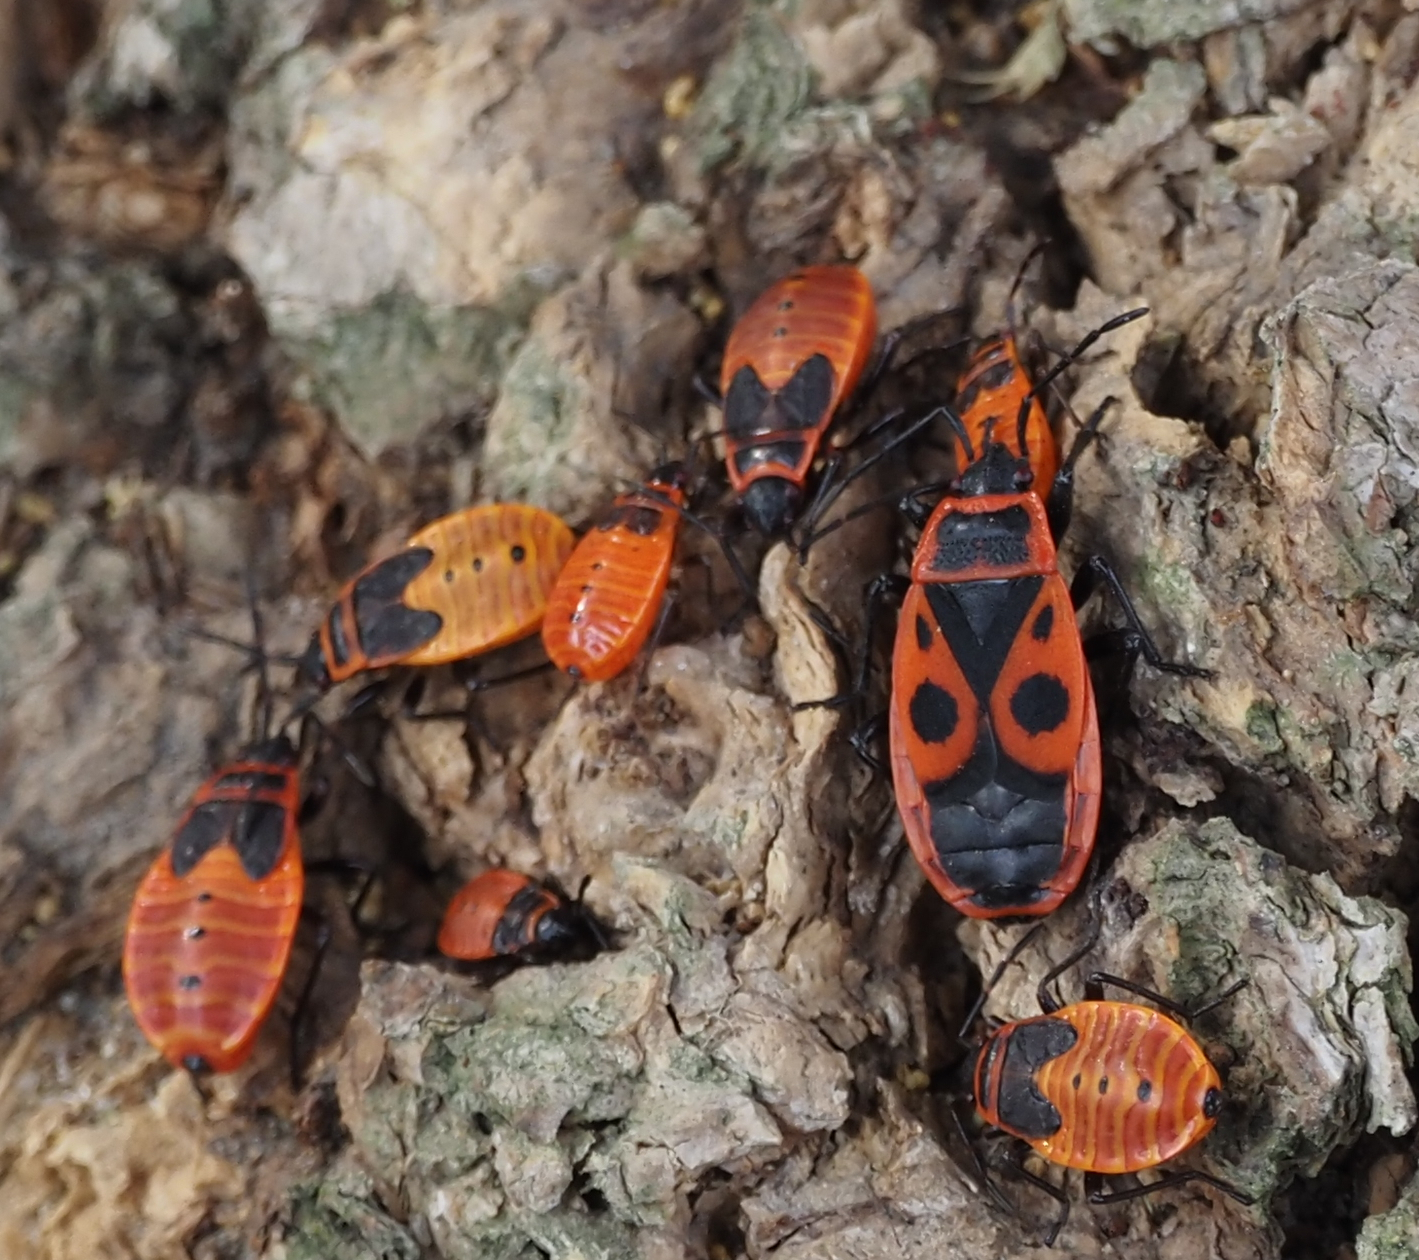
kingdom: Animalia
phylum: Arthropoda
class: Insecta
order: Hemiptera
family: Pyrrhocoridae
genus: Pyrrhocoris
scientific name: Pyrrhocoris apterus
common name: Firebug
